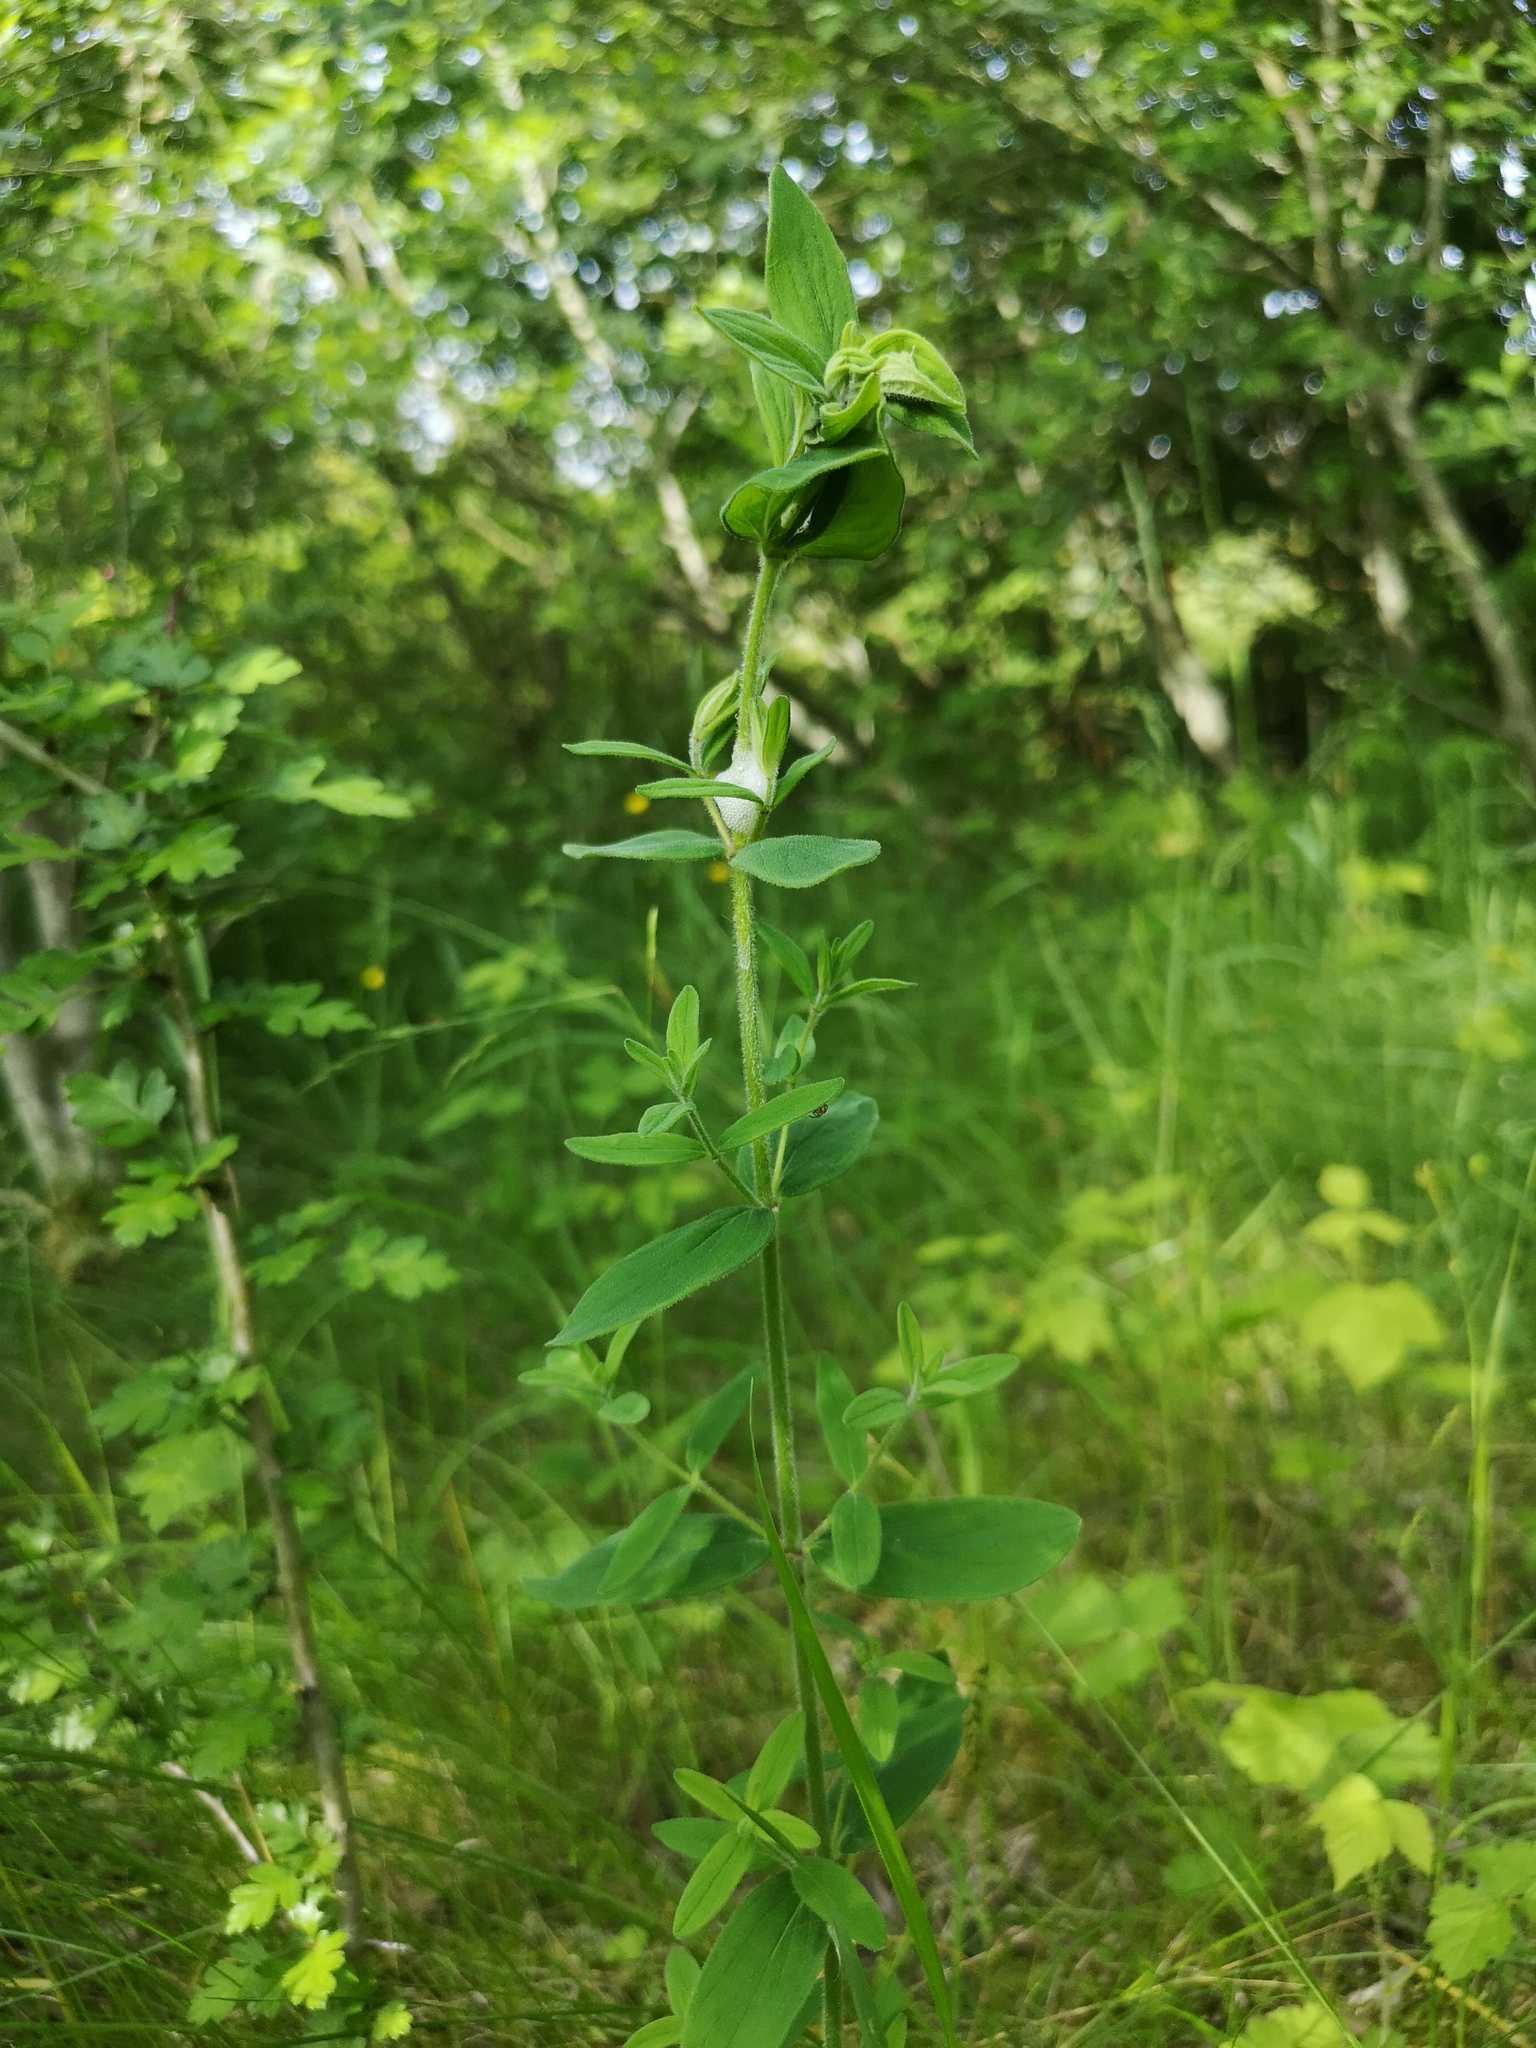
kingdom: Plantae
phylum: Tracheophyta
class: Magnoliopsida
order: Malpighiales
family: Hypericaceae
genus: Hypericum
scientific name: Hypericum hirsutum
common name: Hairy st. john's-wort
